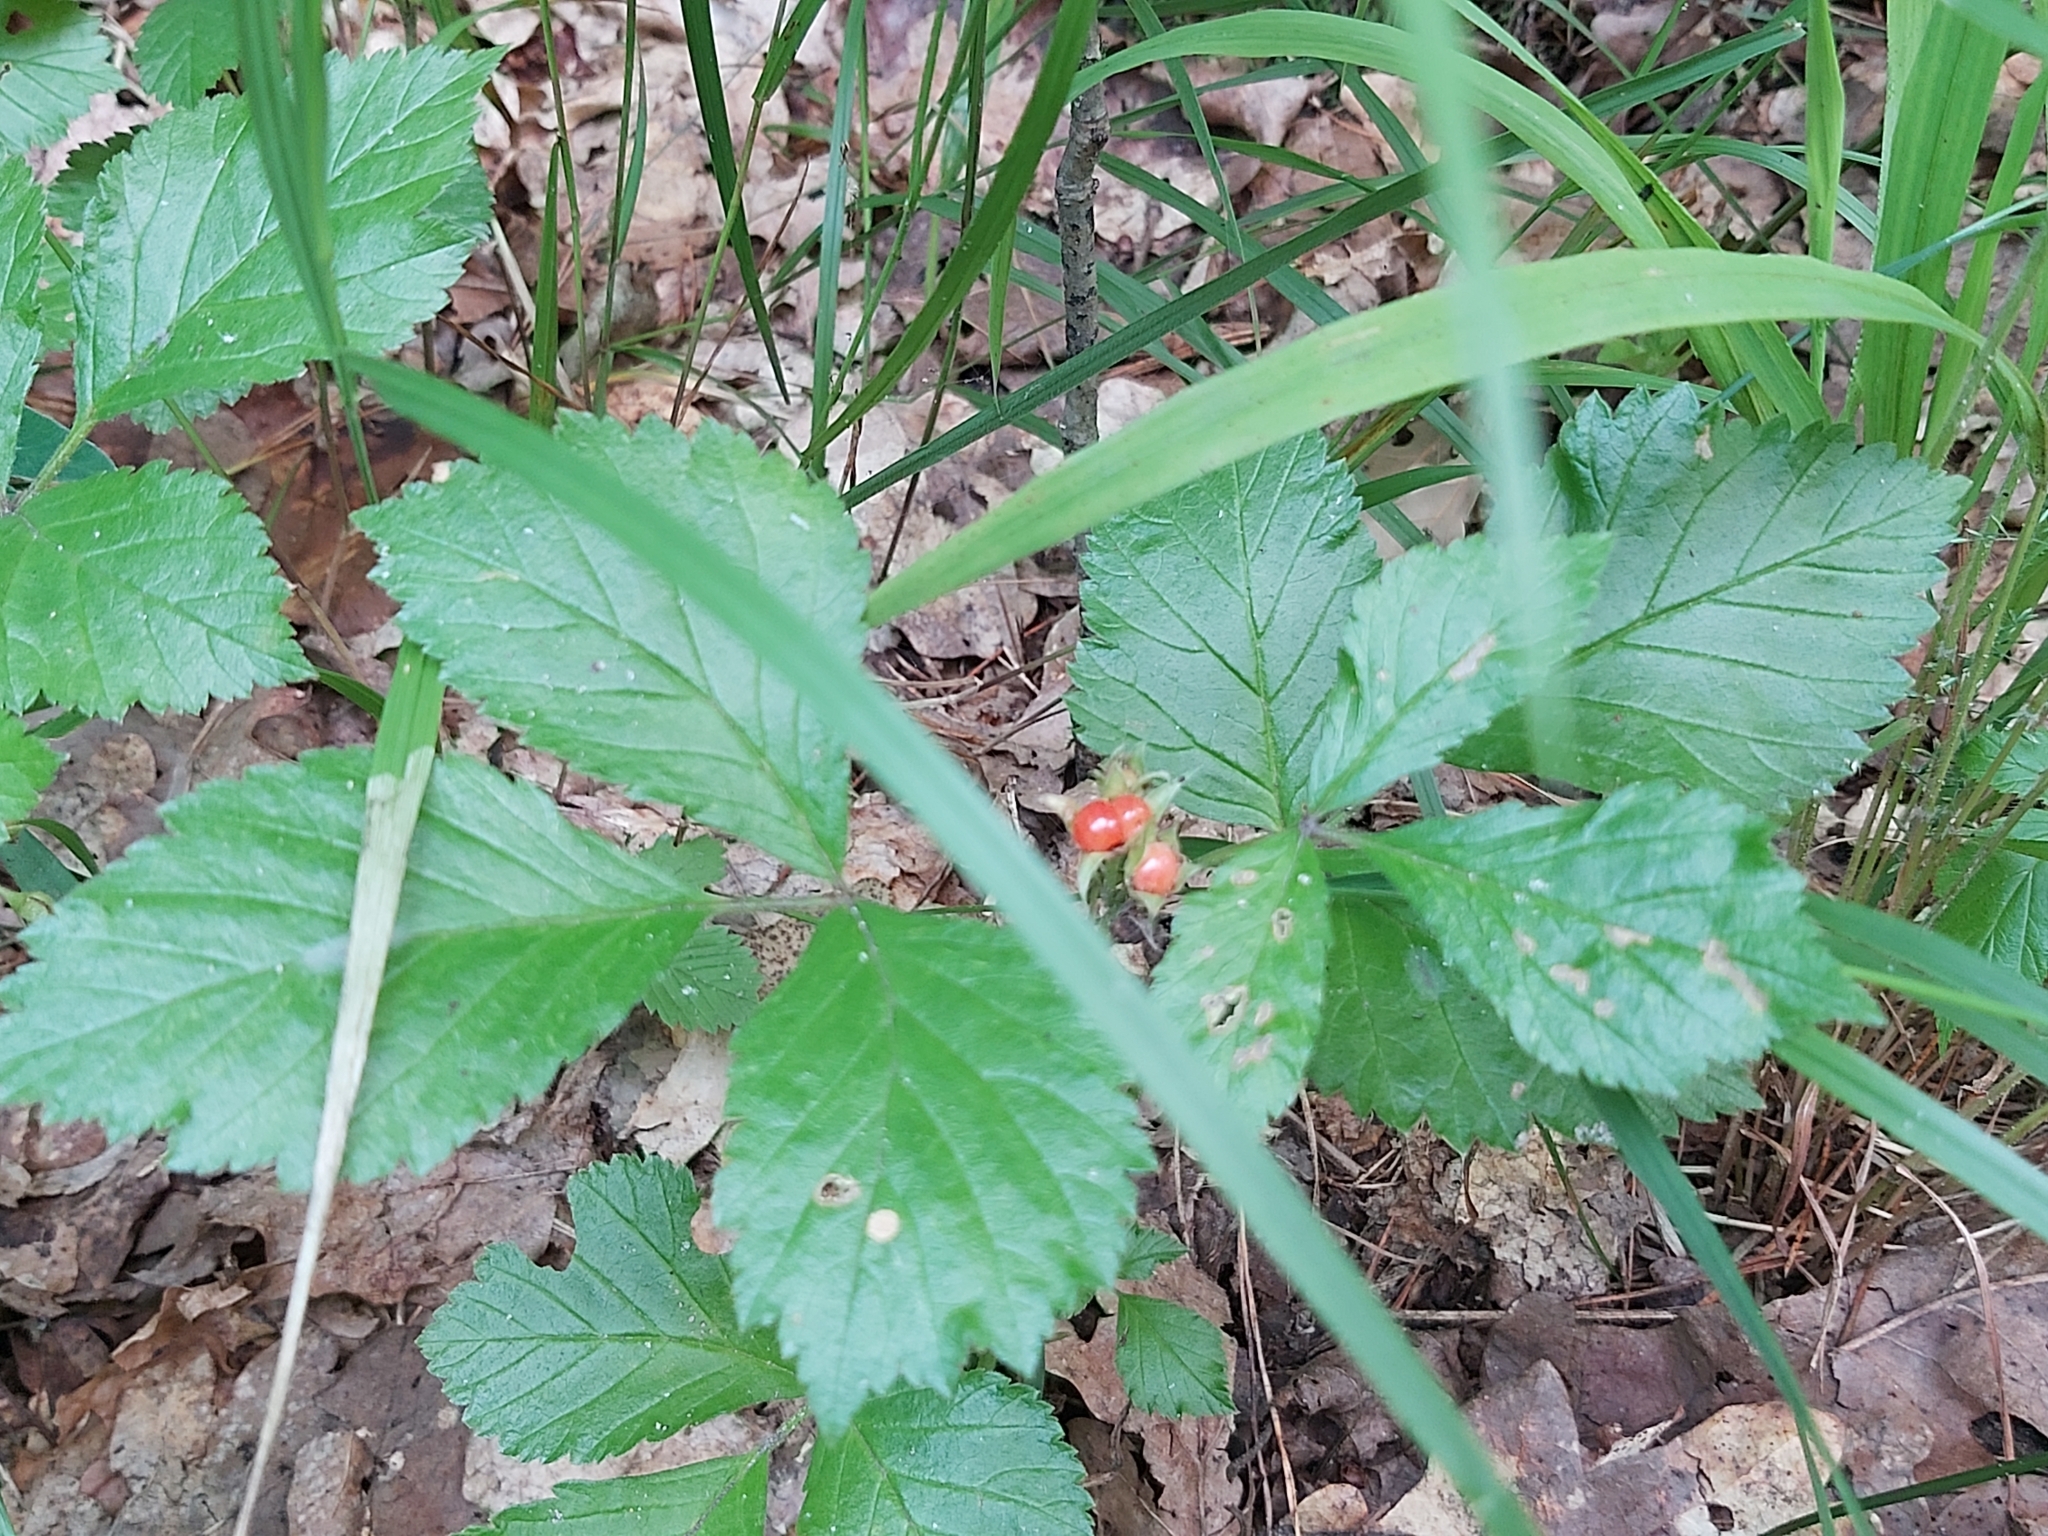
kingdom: Plantae
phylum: Tracheophyta
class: Magnoliopsida
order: Rosales
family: Rosaceae
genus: Rubus
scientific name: Rubus saxatilis
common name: Stone bramble
